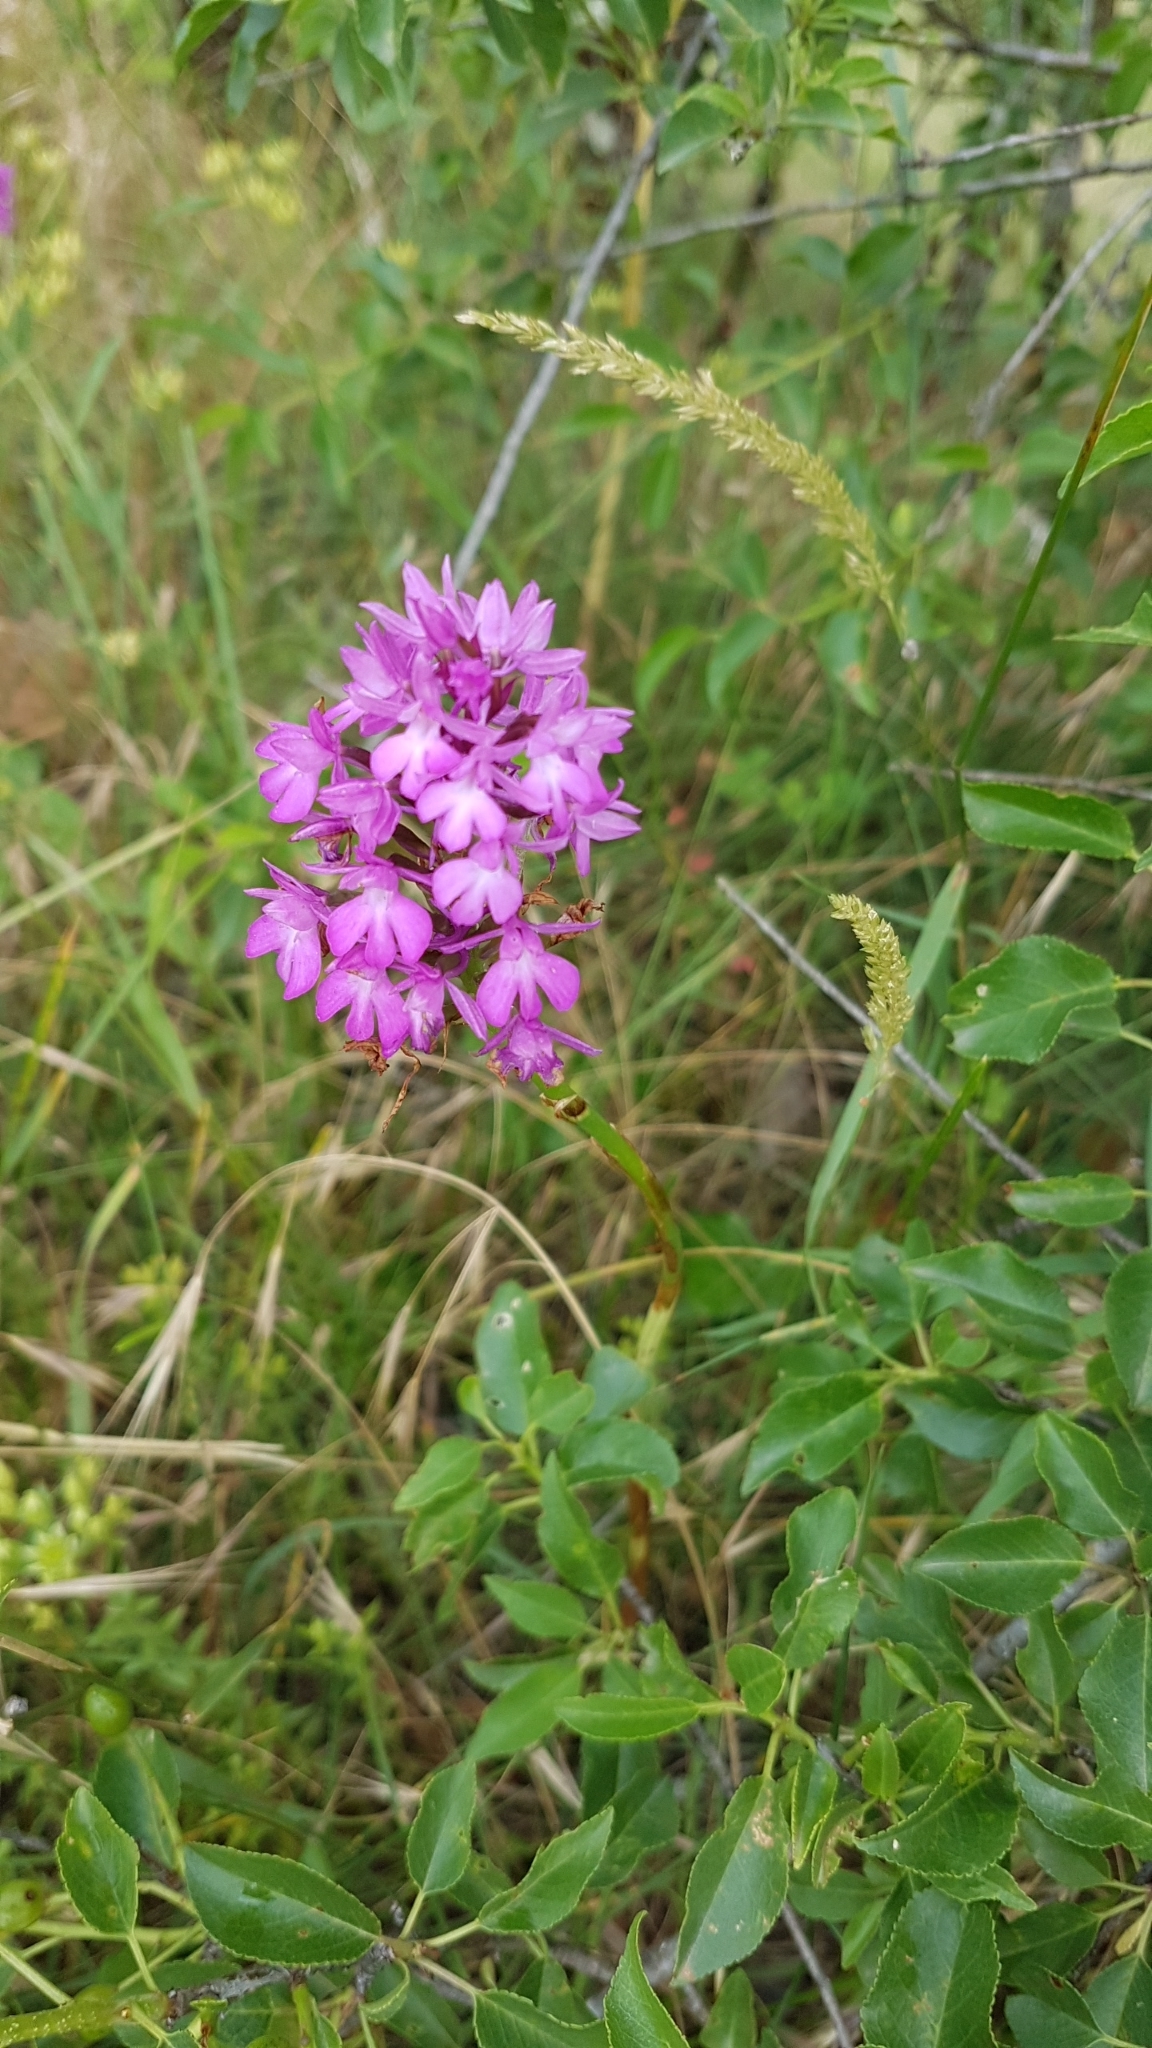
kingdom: Plantae
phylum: Tracheophyta
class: Liliopsida
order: Asparagales
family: Orchidaceae
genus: Anacamptis
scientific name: Anacamptis pyramidalis
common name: Pyramidal orchid
